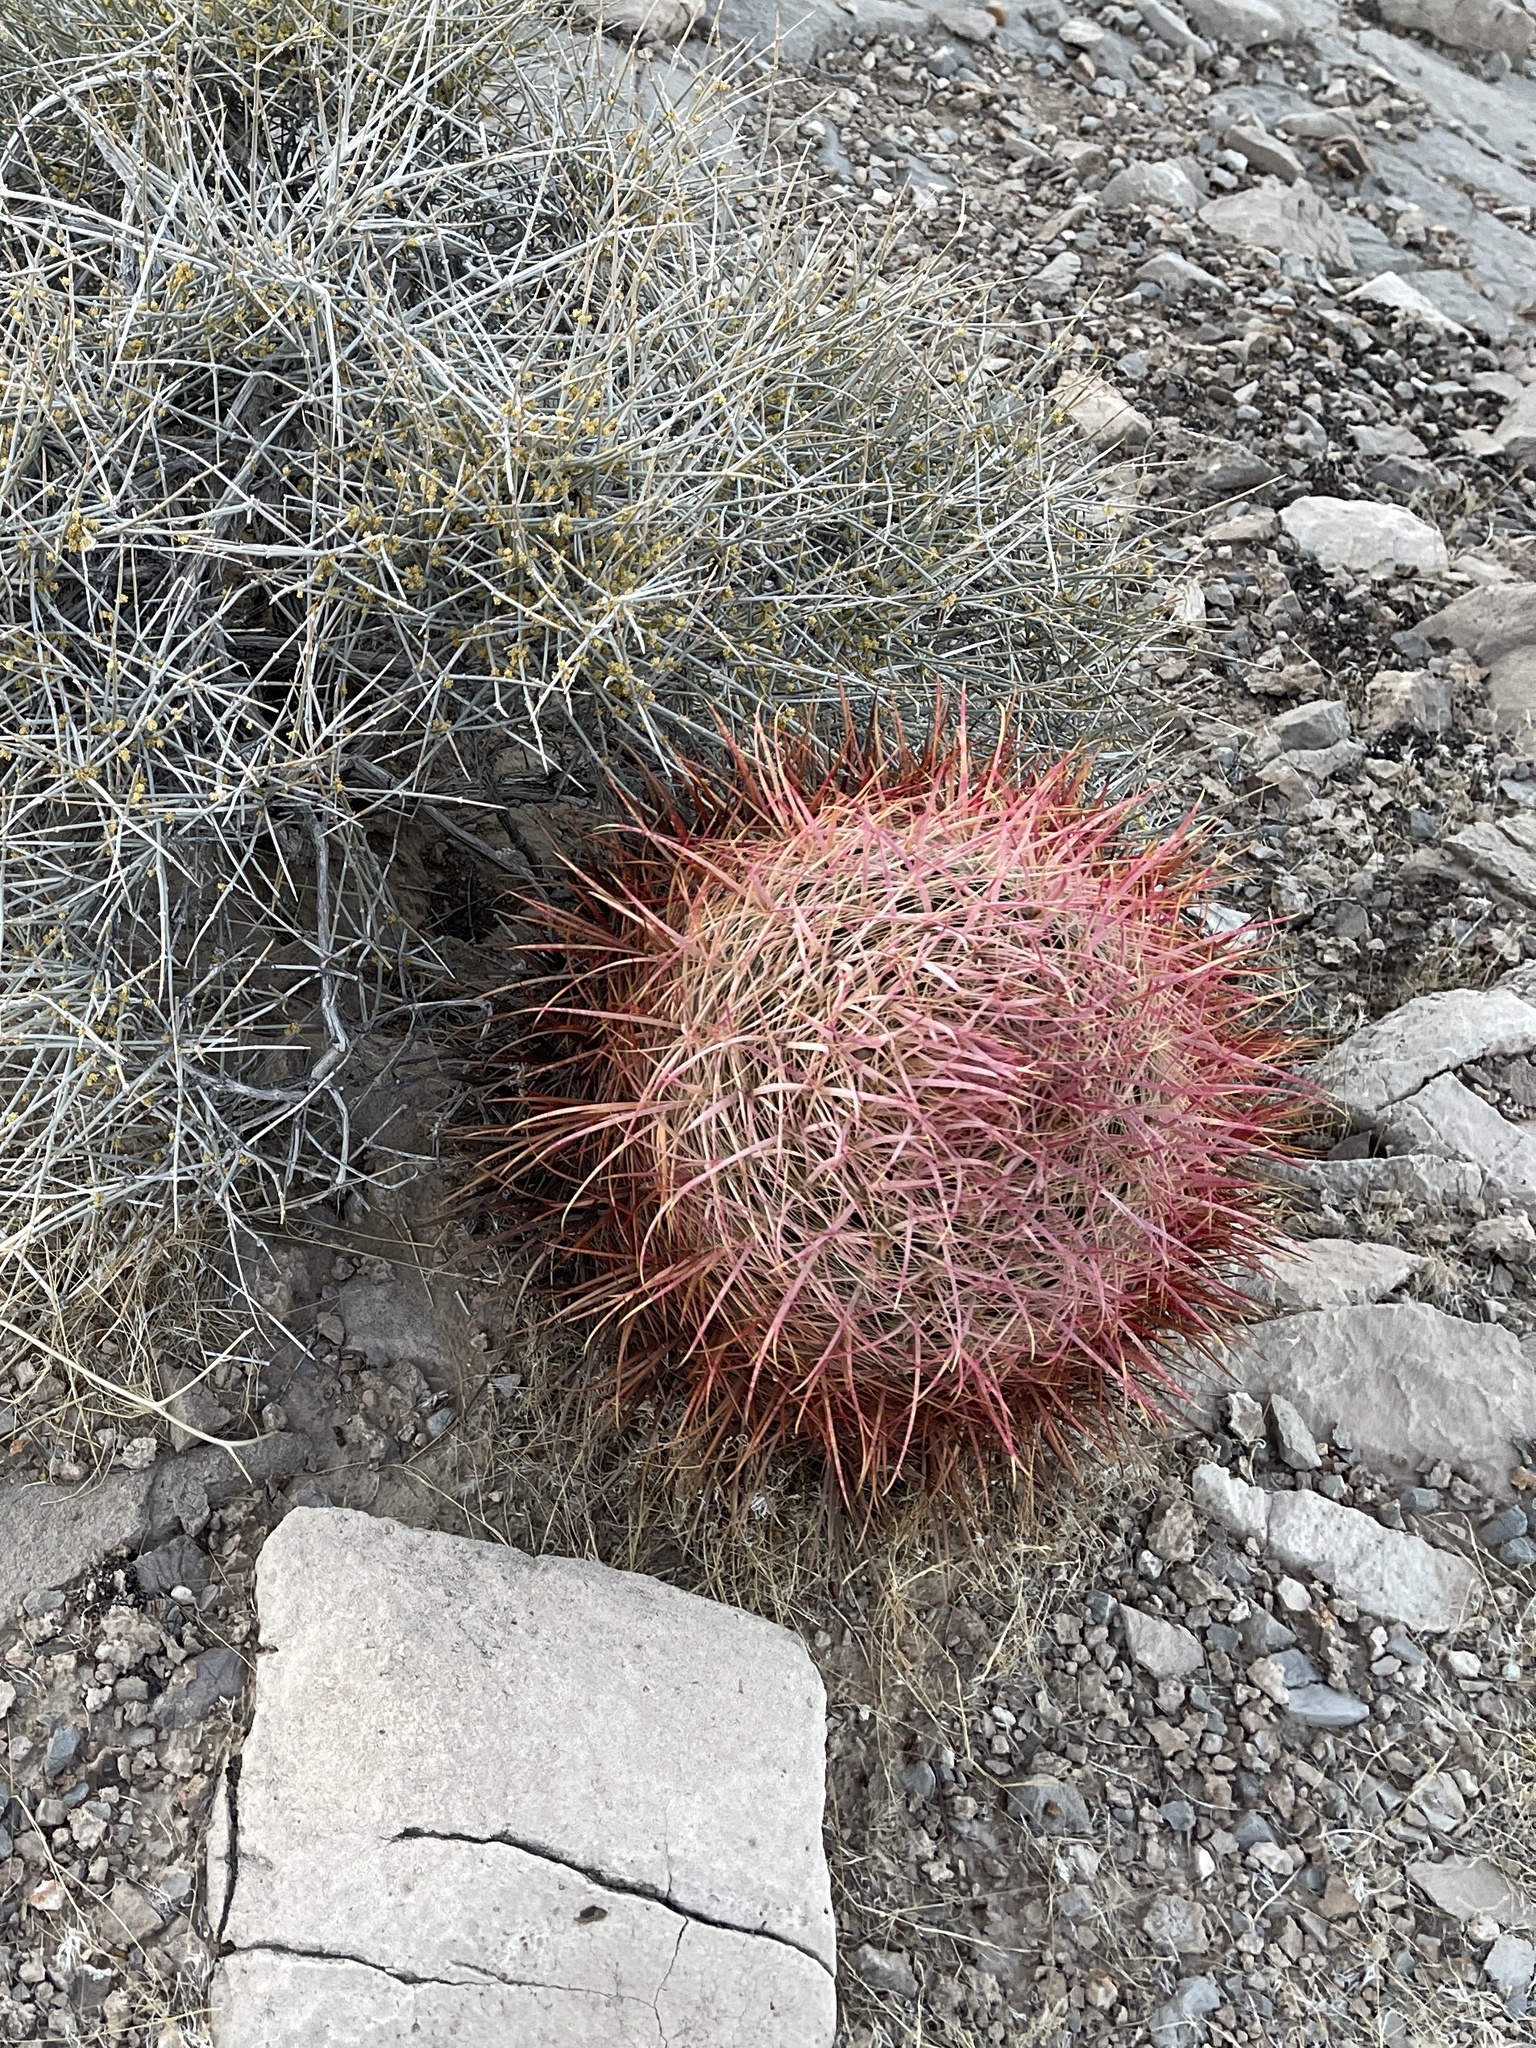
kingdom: Plantae
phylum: Tracheophyta
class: Magnoliopsida
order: Caryophyllales
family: Cactaceae
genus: Ferocactus
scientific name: Ferocactus cylindraceus
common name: California barrel cactus
